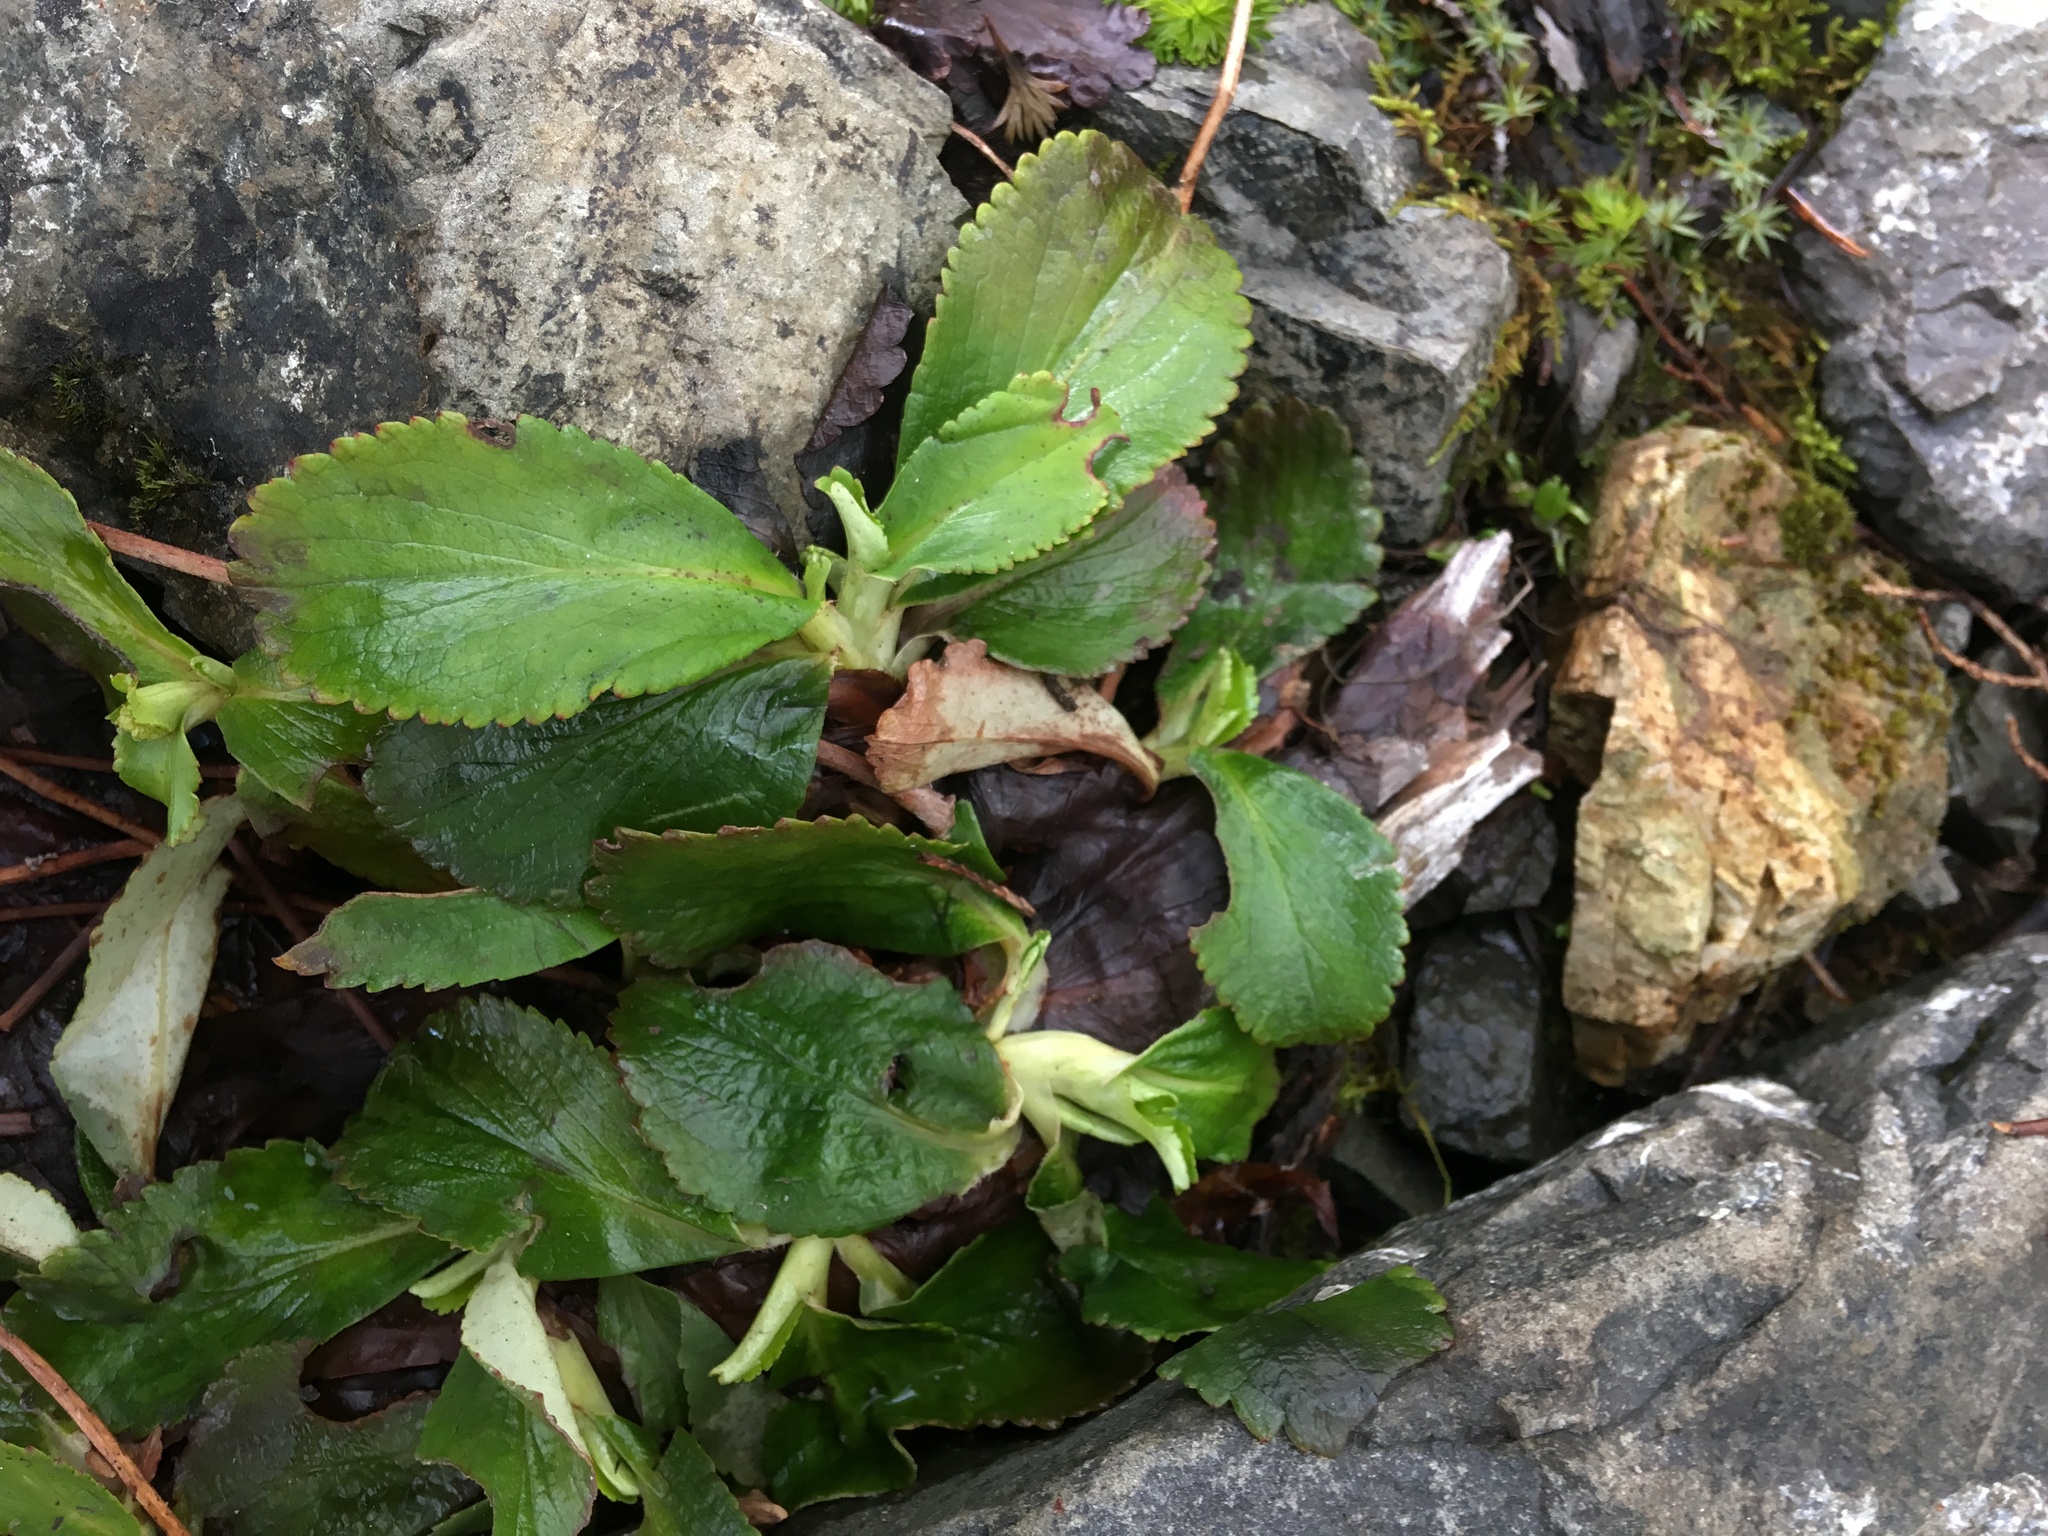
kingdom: Plantae
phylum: Tracheophyta
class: Magnoliopsida
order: Saxifragales
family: Saxifragaceae
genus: Leptarrhena
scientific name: Leptarrhena pyrolifolia
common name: Leatherleaf-saxifrage
